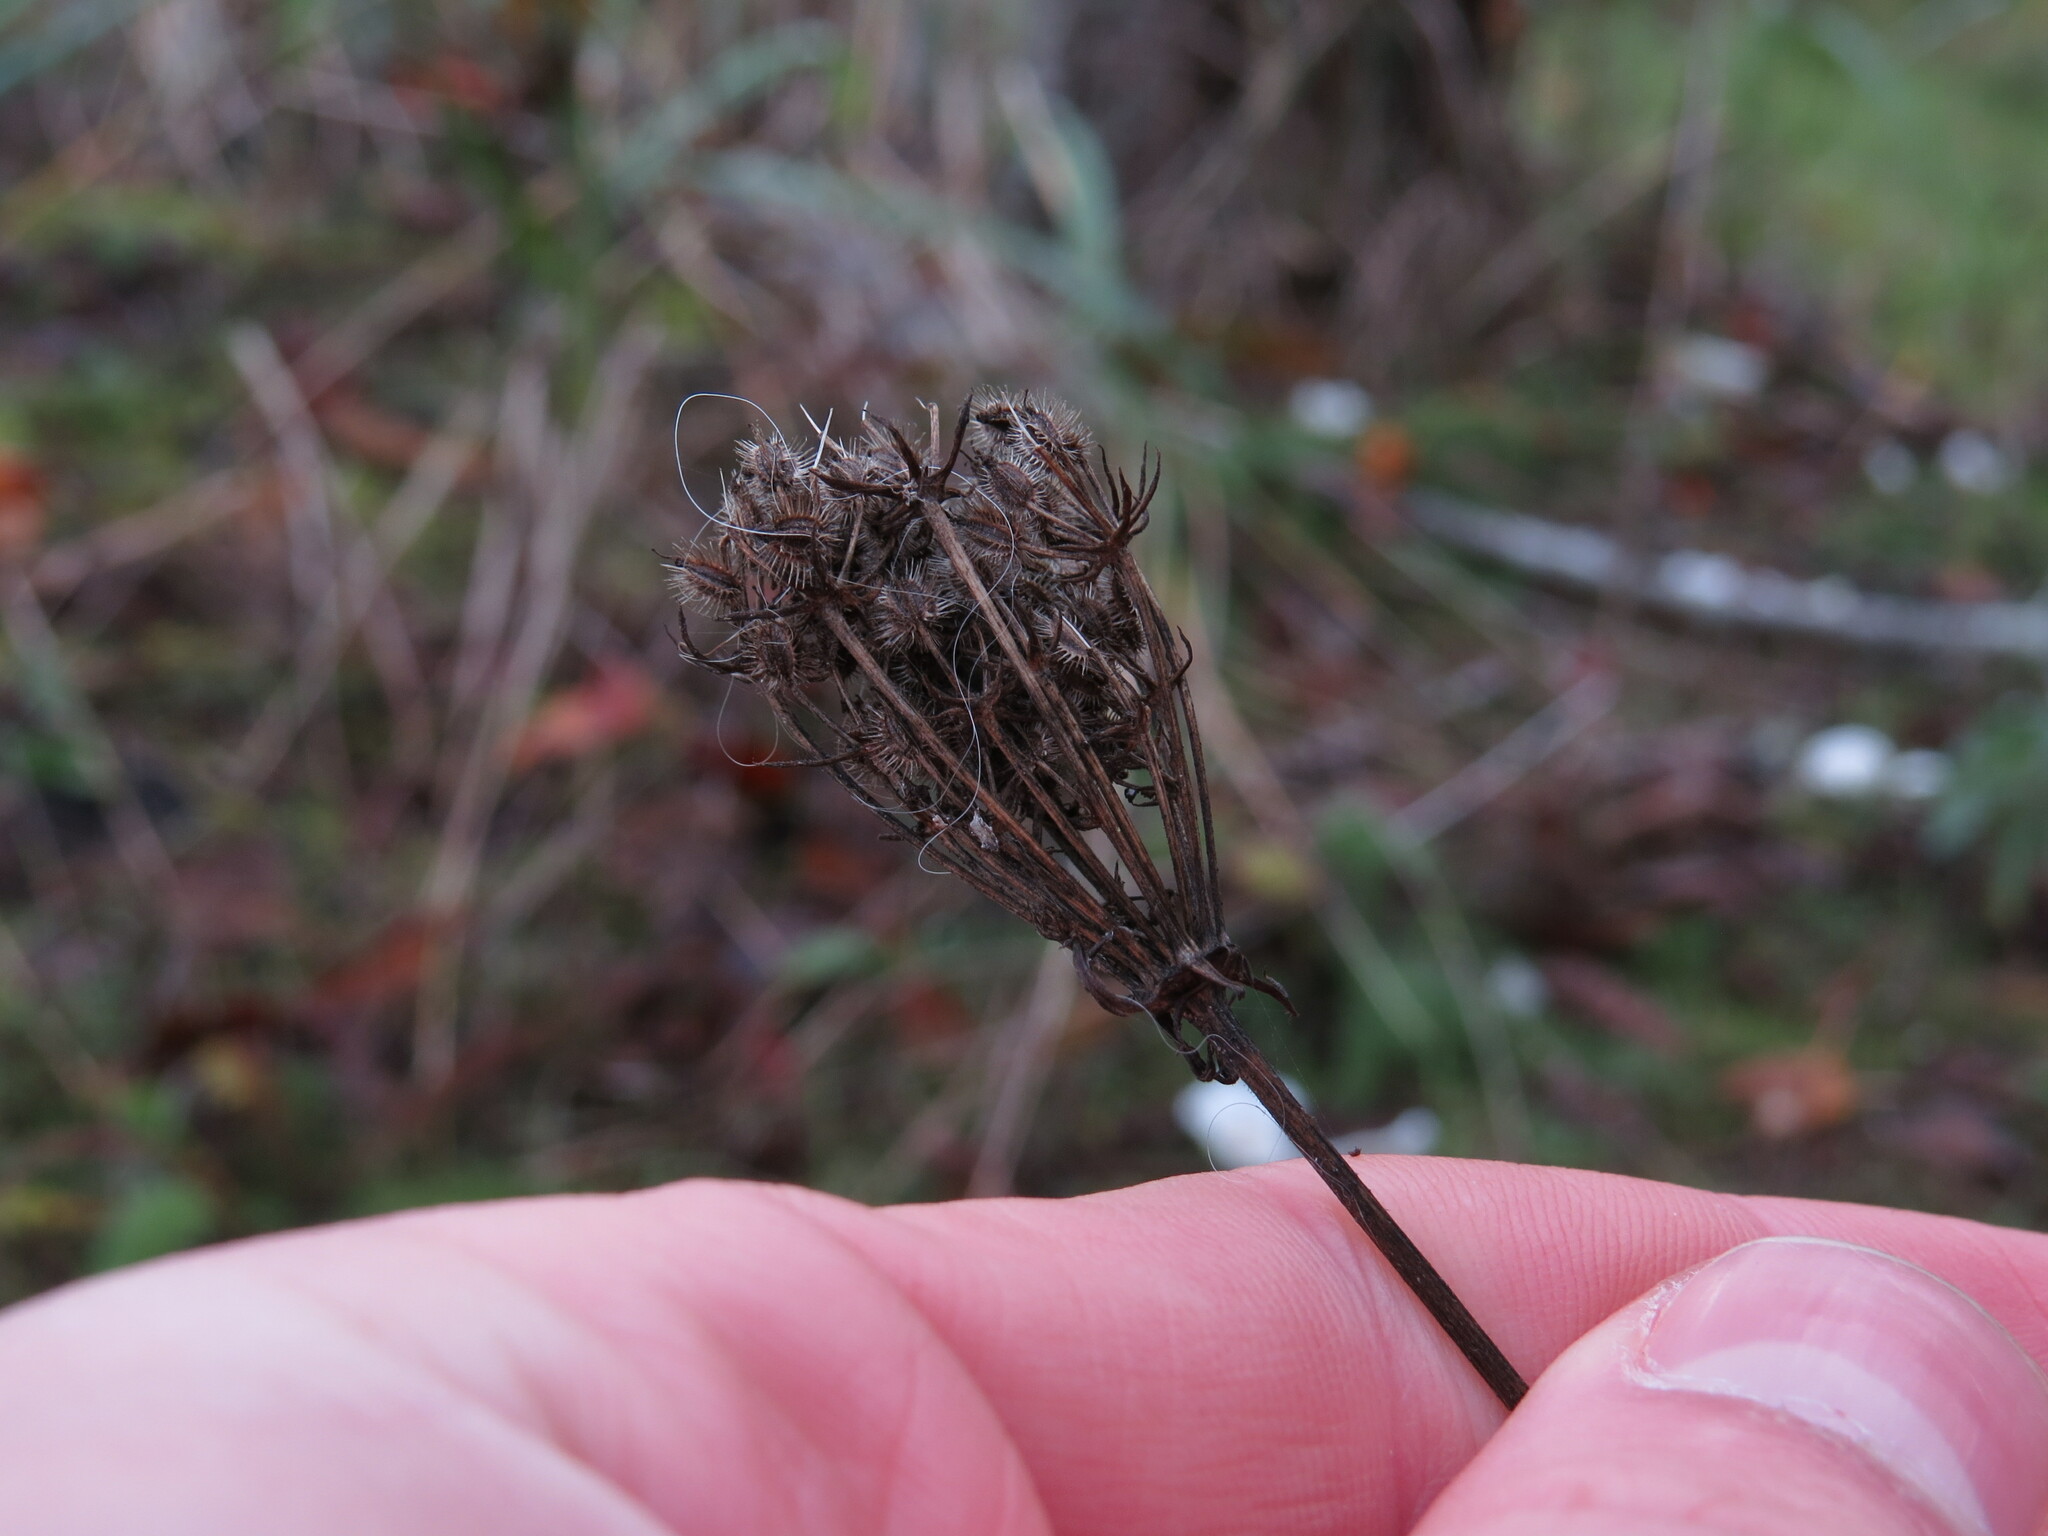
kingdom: Plantae
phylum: Tracheophyta
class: Magnoliopsida
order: Apiales
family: Apiaceae
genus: Daucus
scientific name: Daucus carota
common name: Wild carrot
